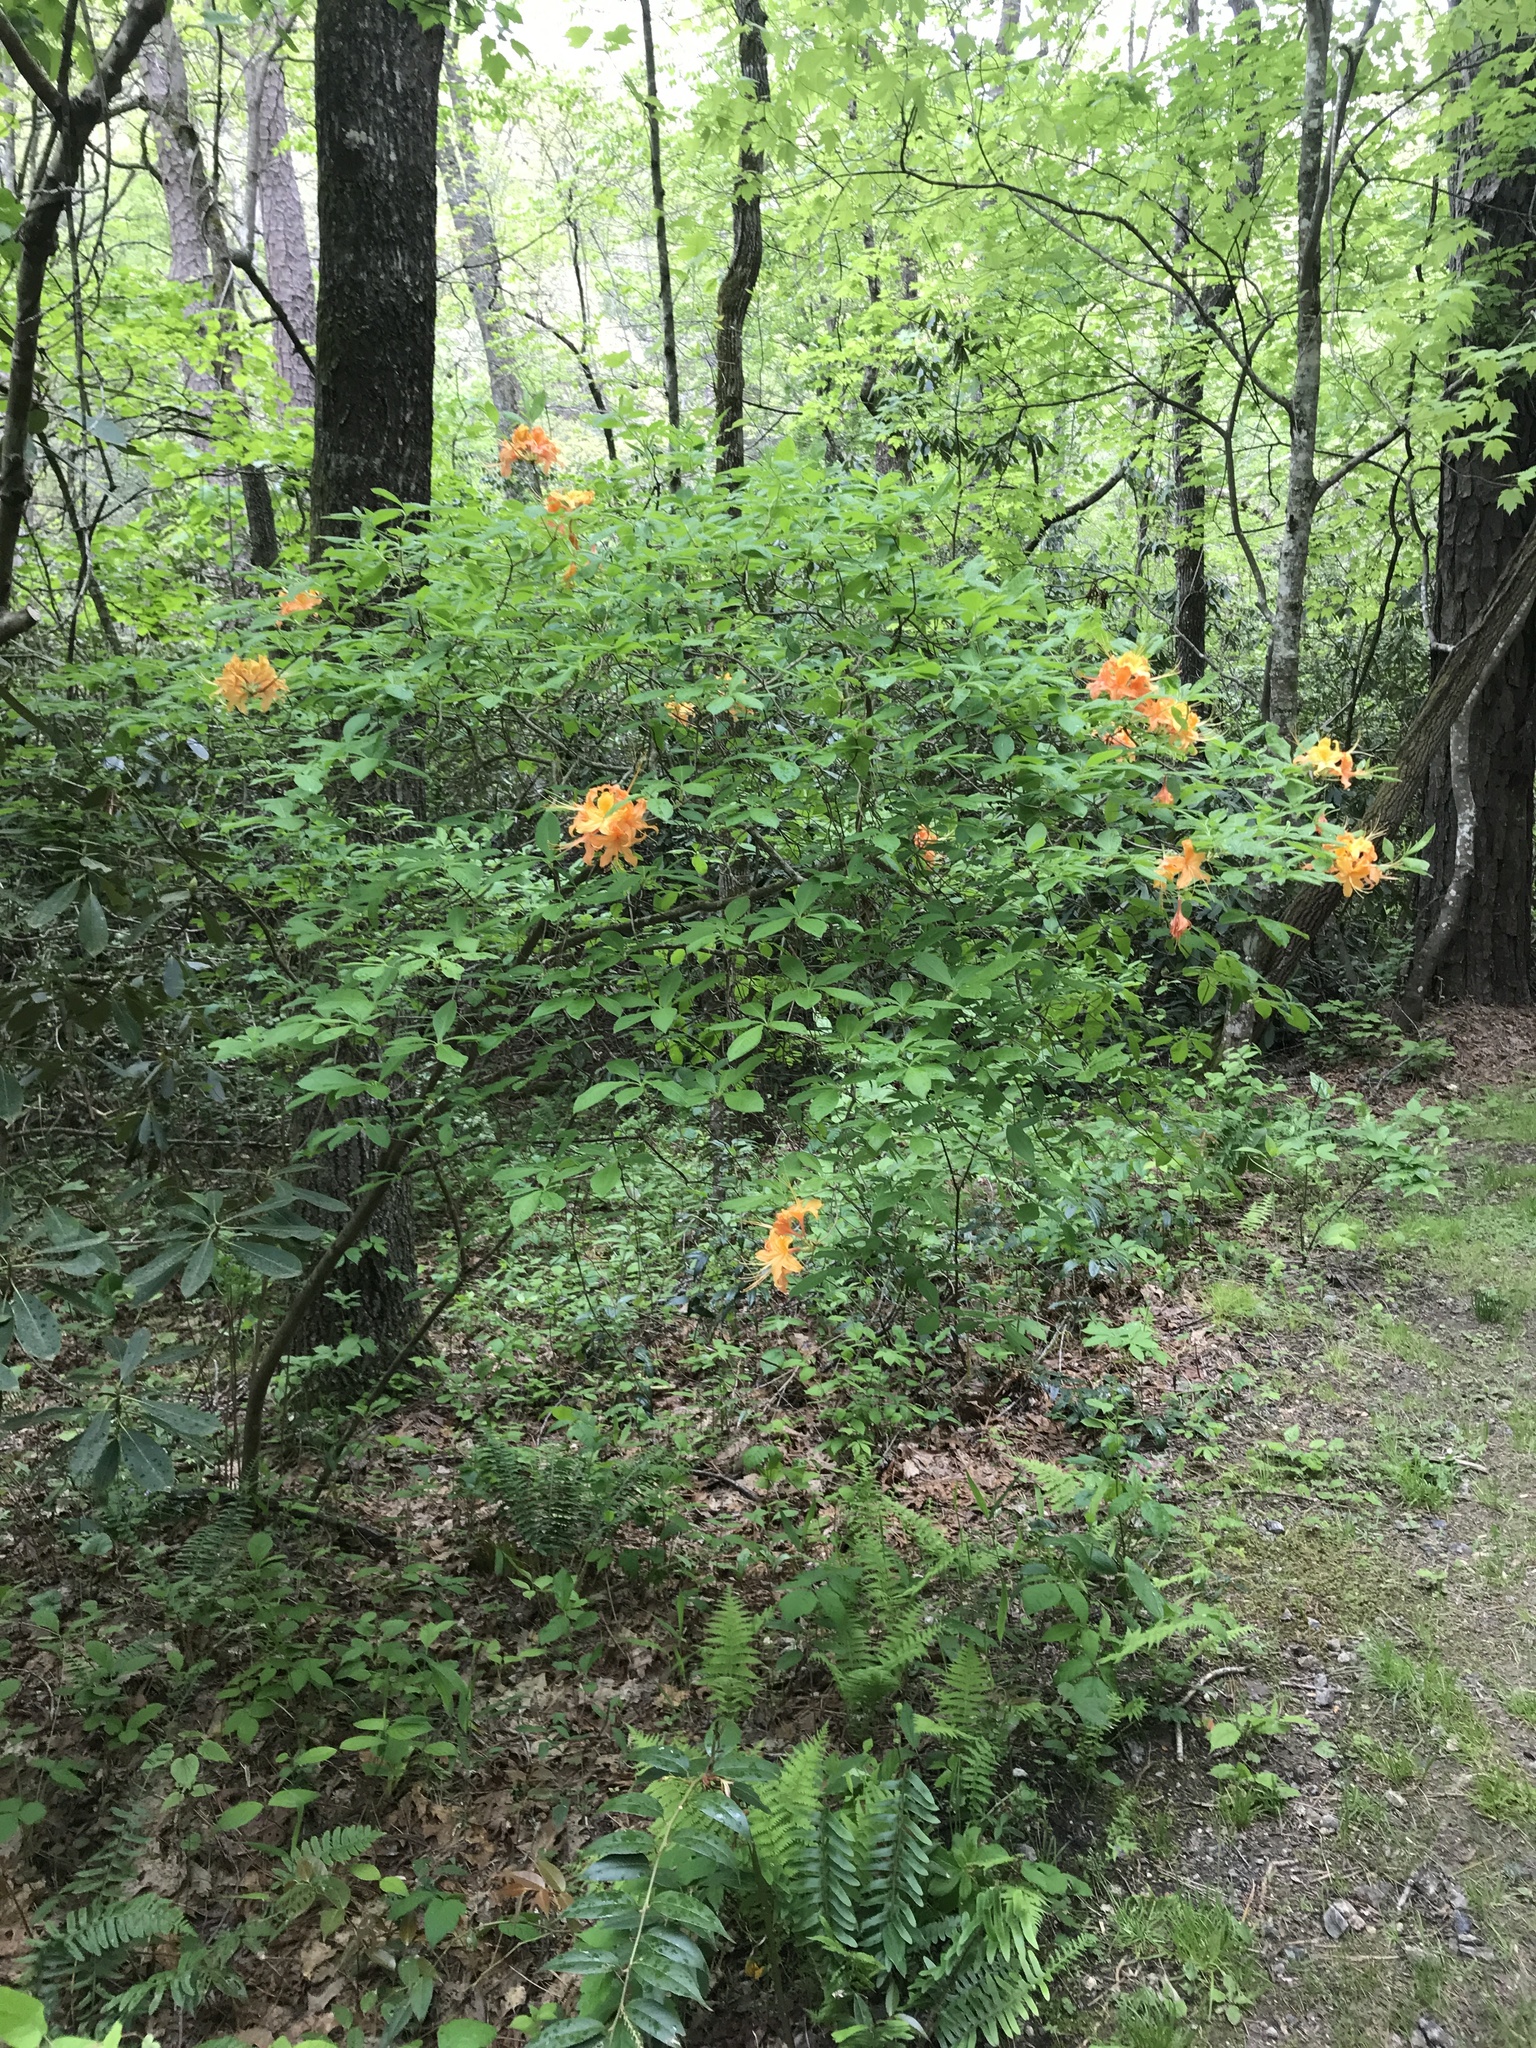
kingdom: Plantae
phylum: Tracheophyta
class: Magnoliopsida
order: Ericales
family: Ericaceae
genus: Rhododendron
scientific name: Rhododendron calendulaceum
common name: Flame azalea
